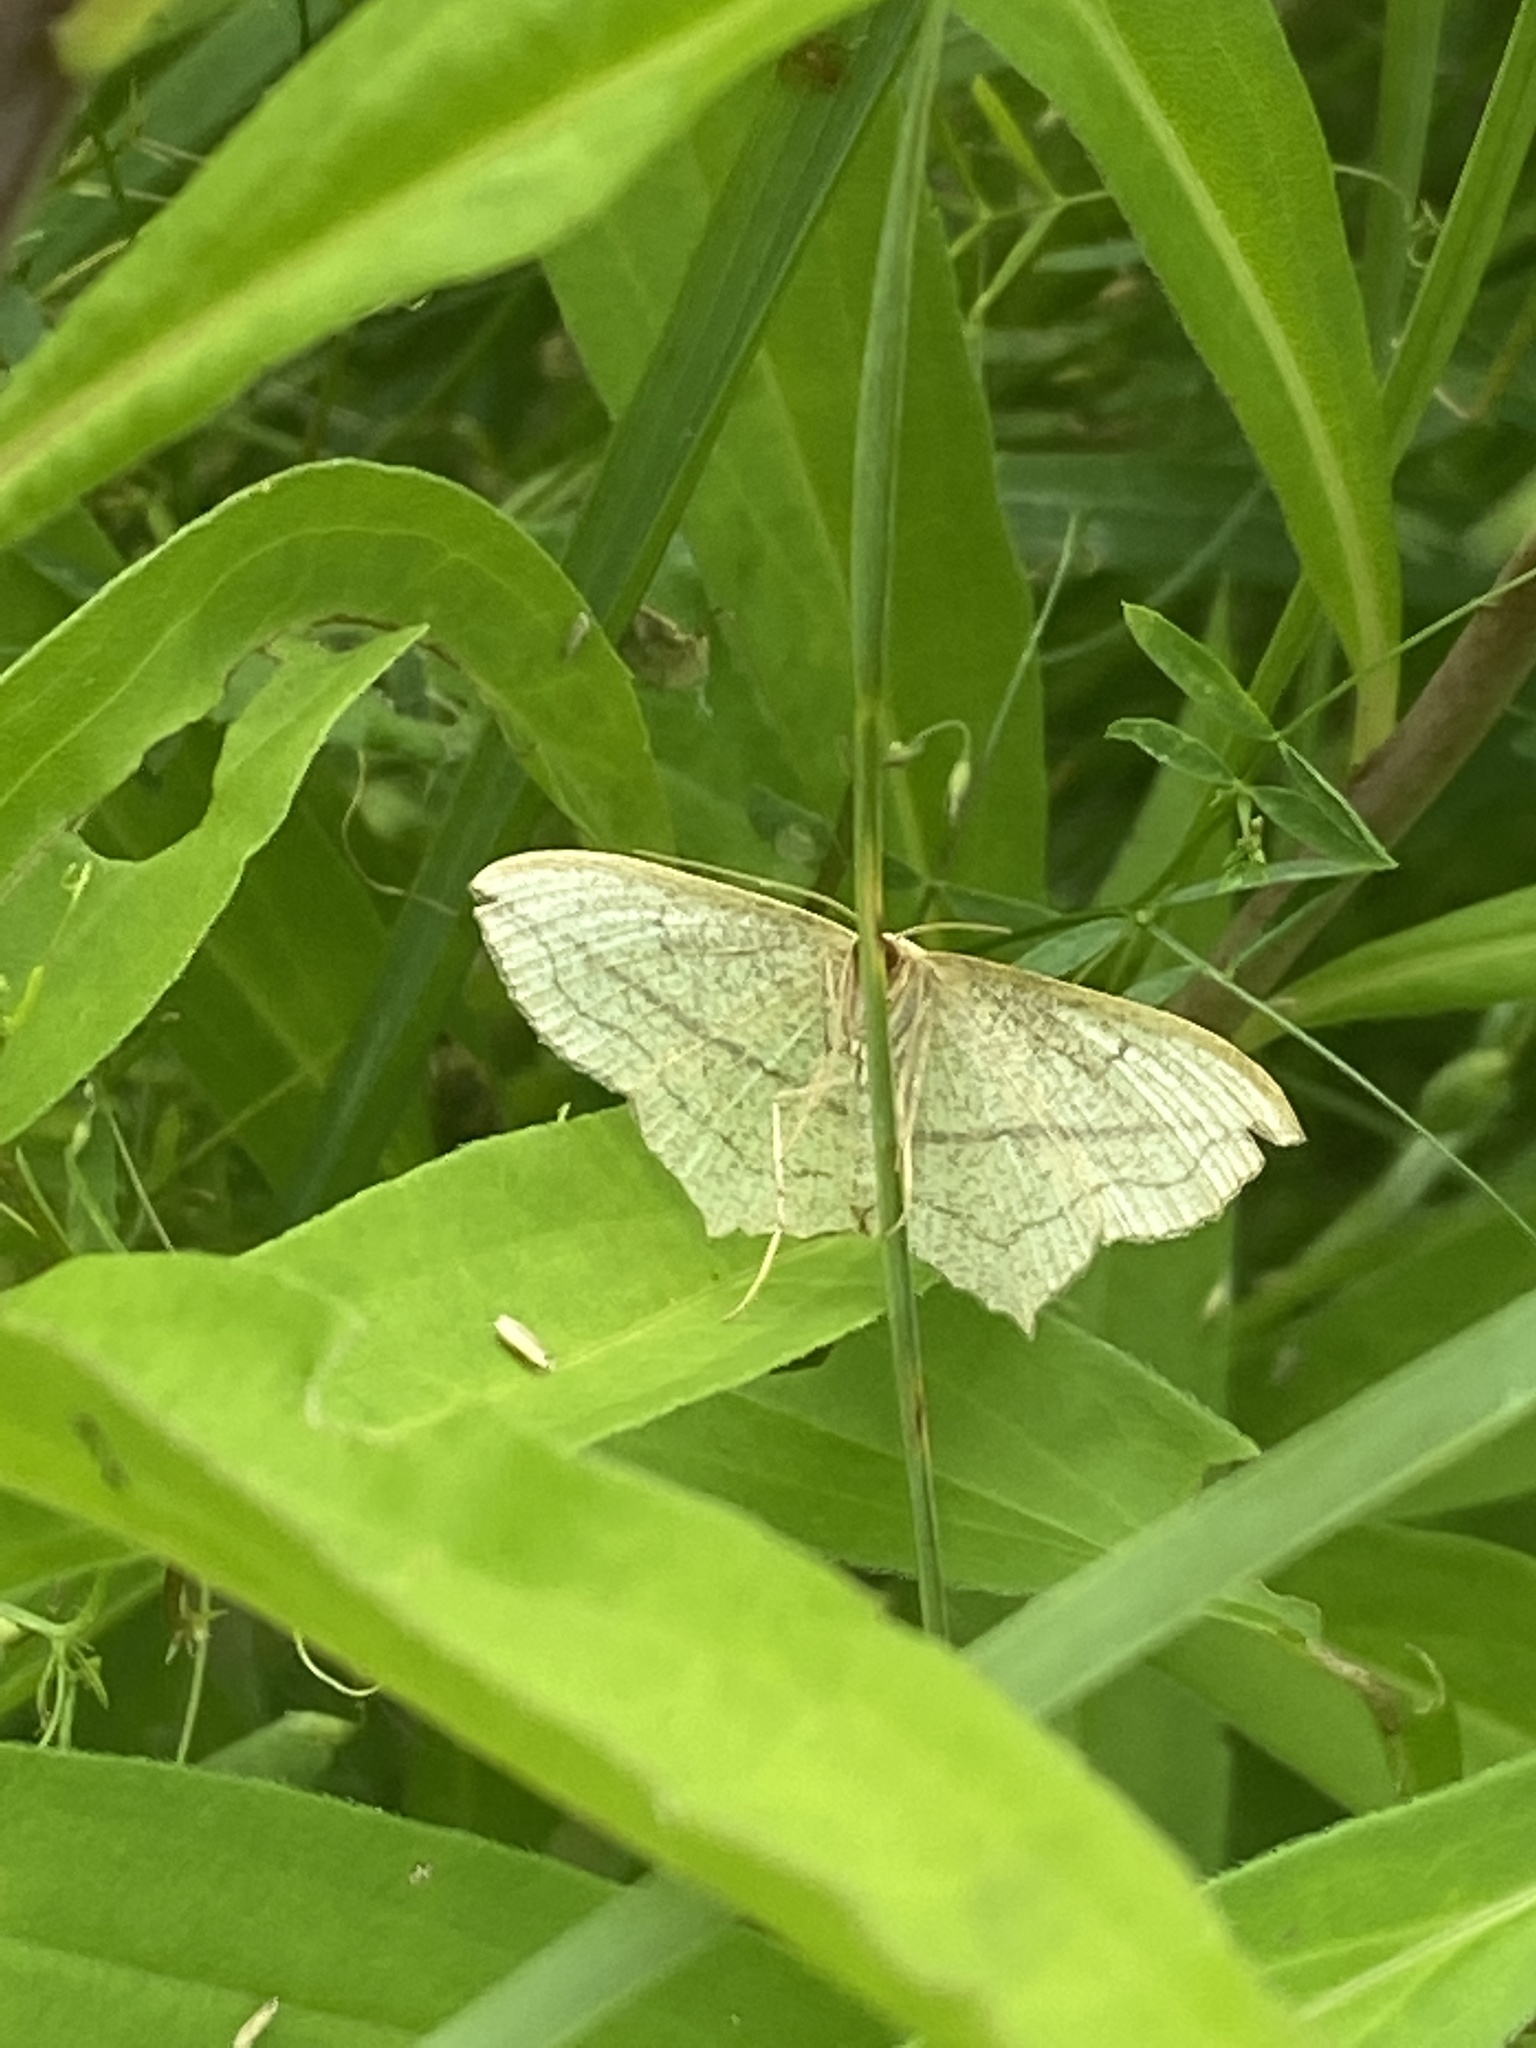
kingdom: Animalia
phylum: Arthropoda
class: Insecta
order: Lepidoptera
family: Geometridae
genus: Timandra
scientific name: Timandra comae
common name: Blood-vein
